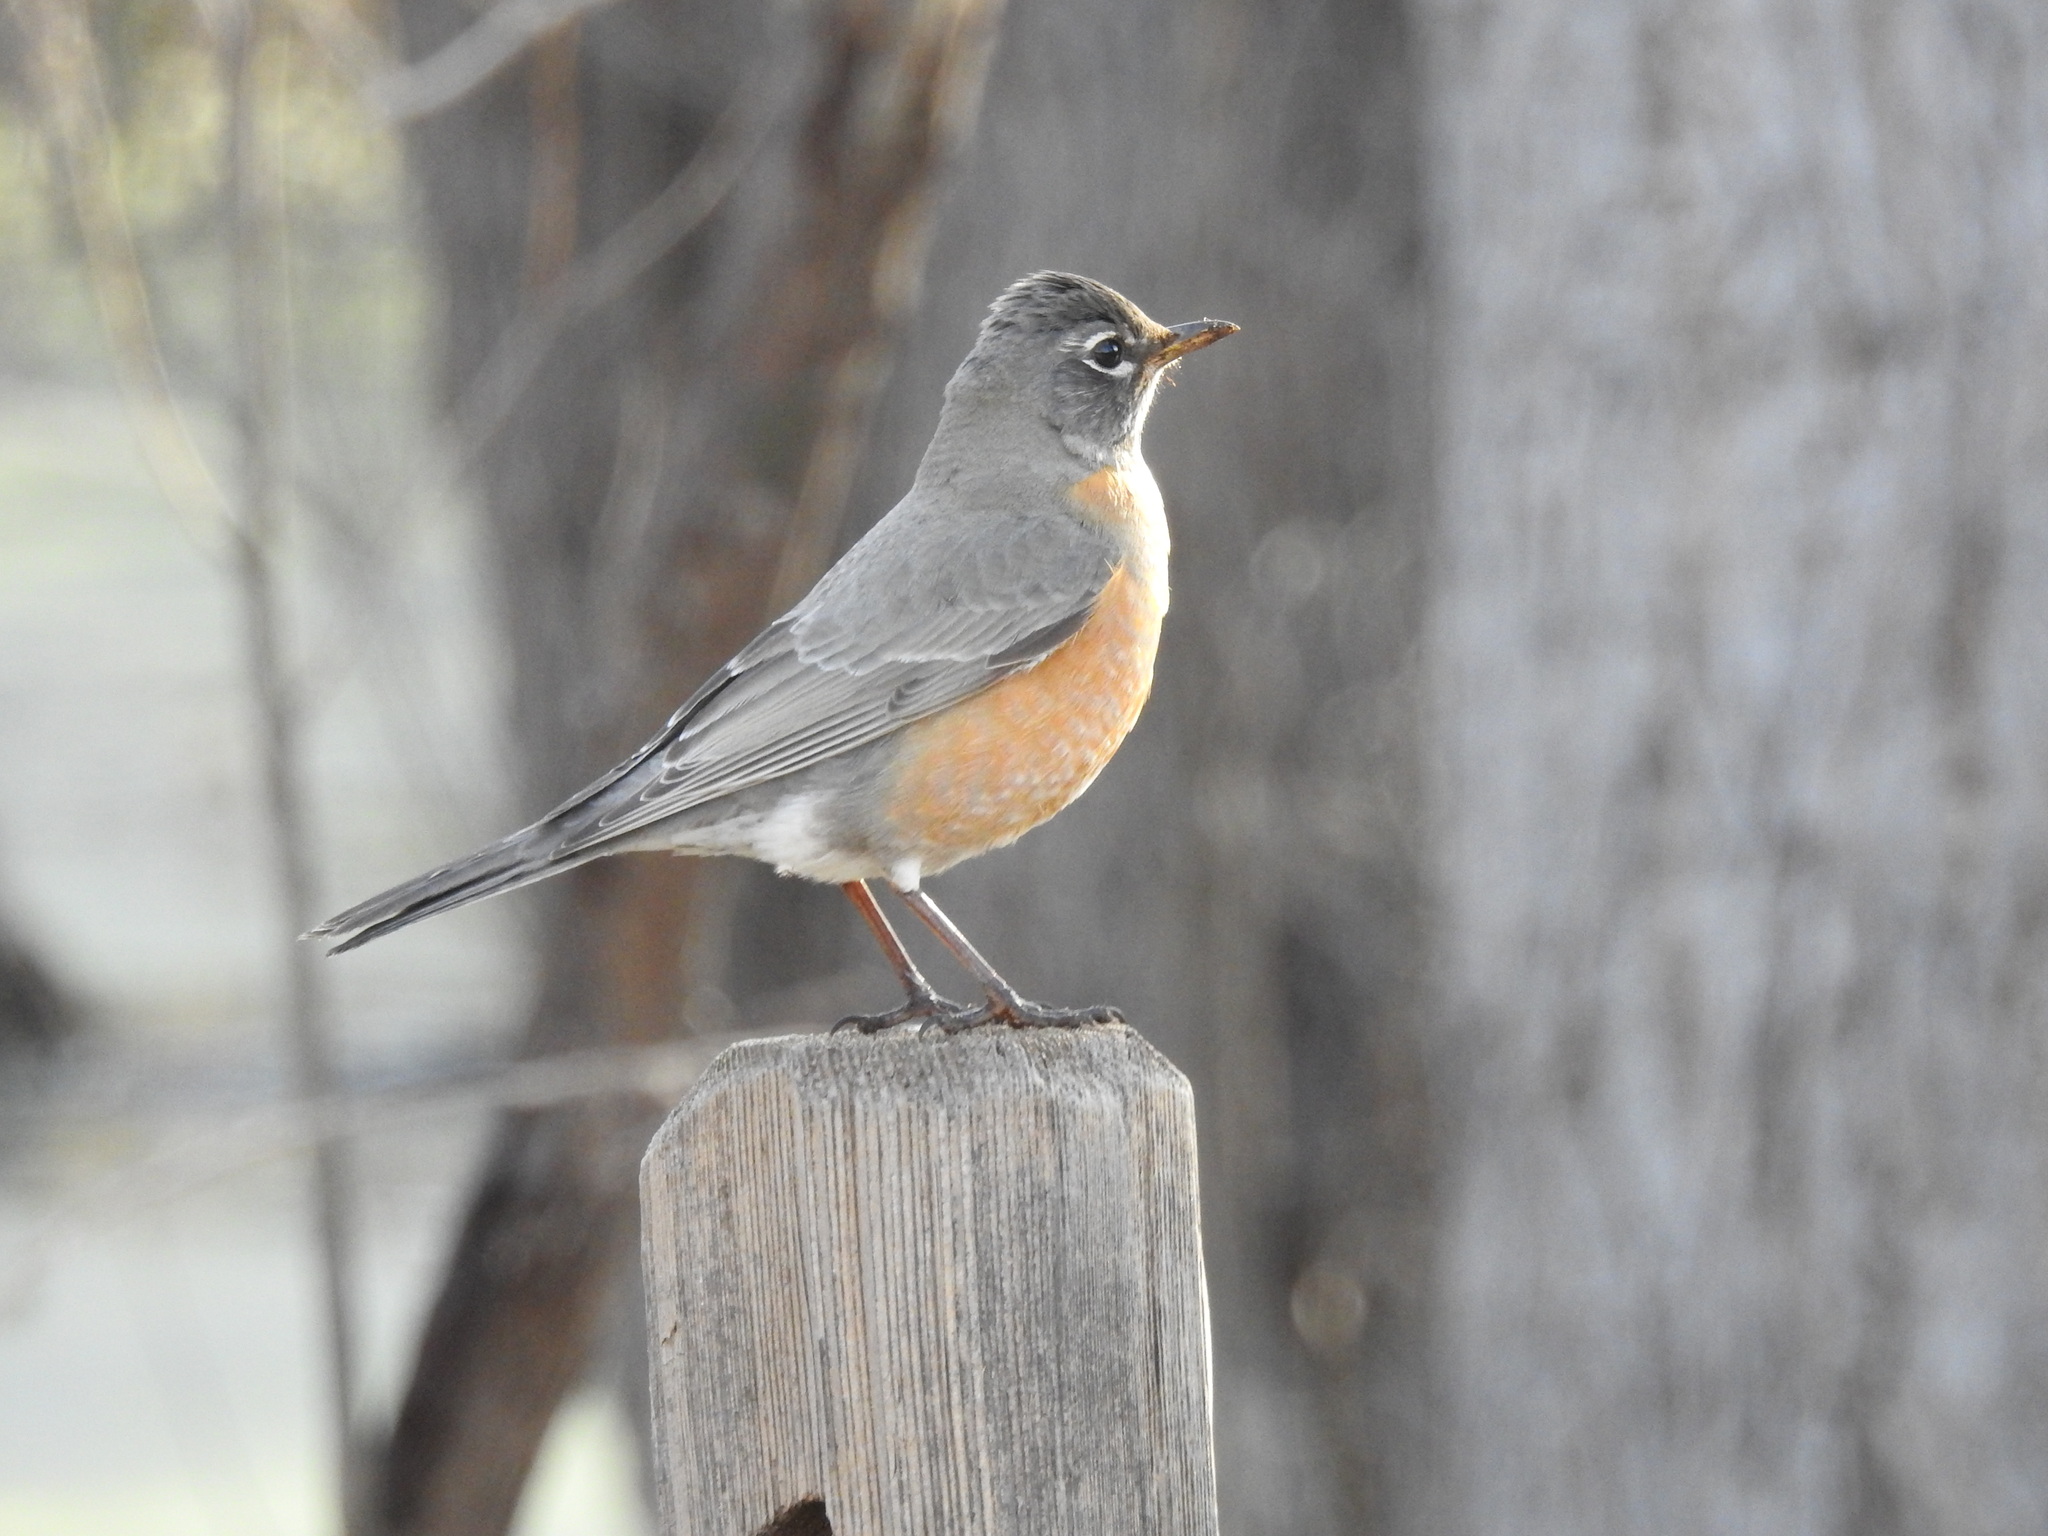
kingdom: Animalia
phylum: Chordata
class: Aves
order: Passeriformes
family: Turdidae
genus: Turdus
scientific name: Turdus migratorius
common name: American robin
